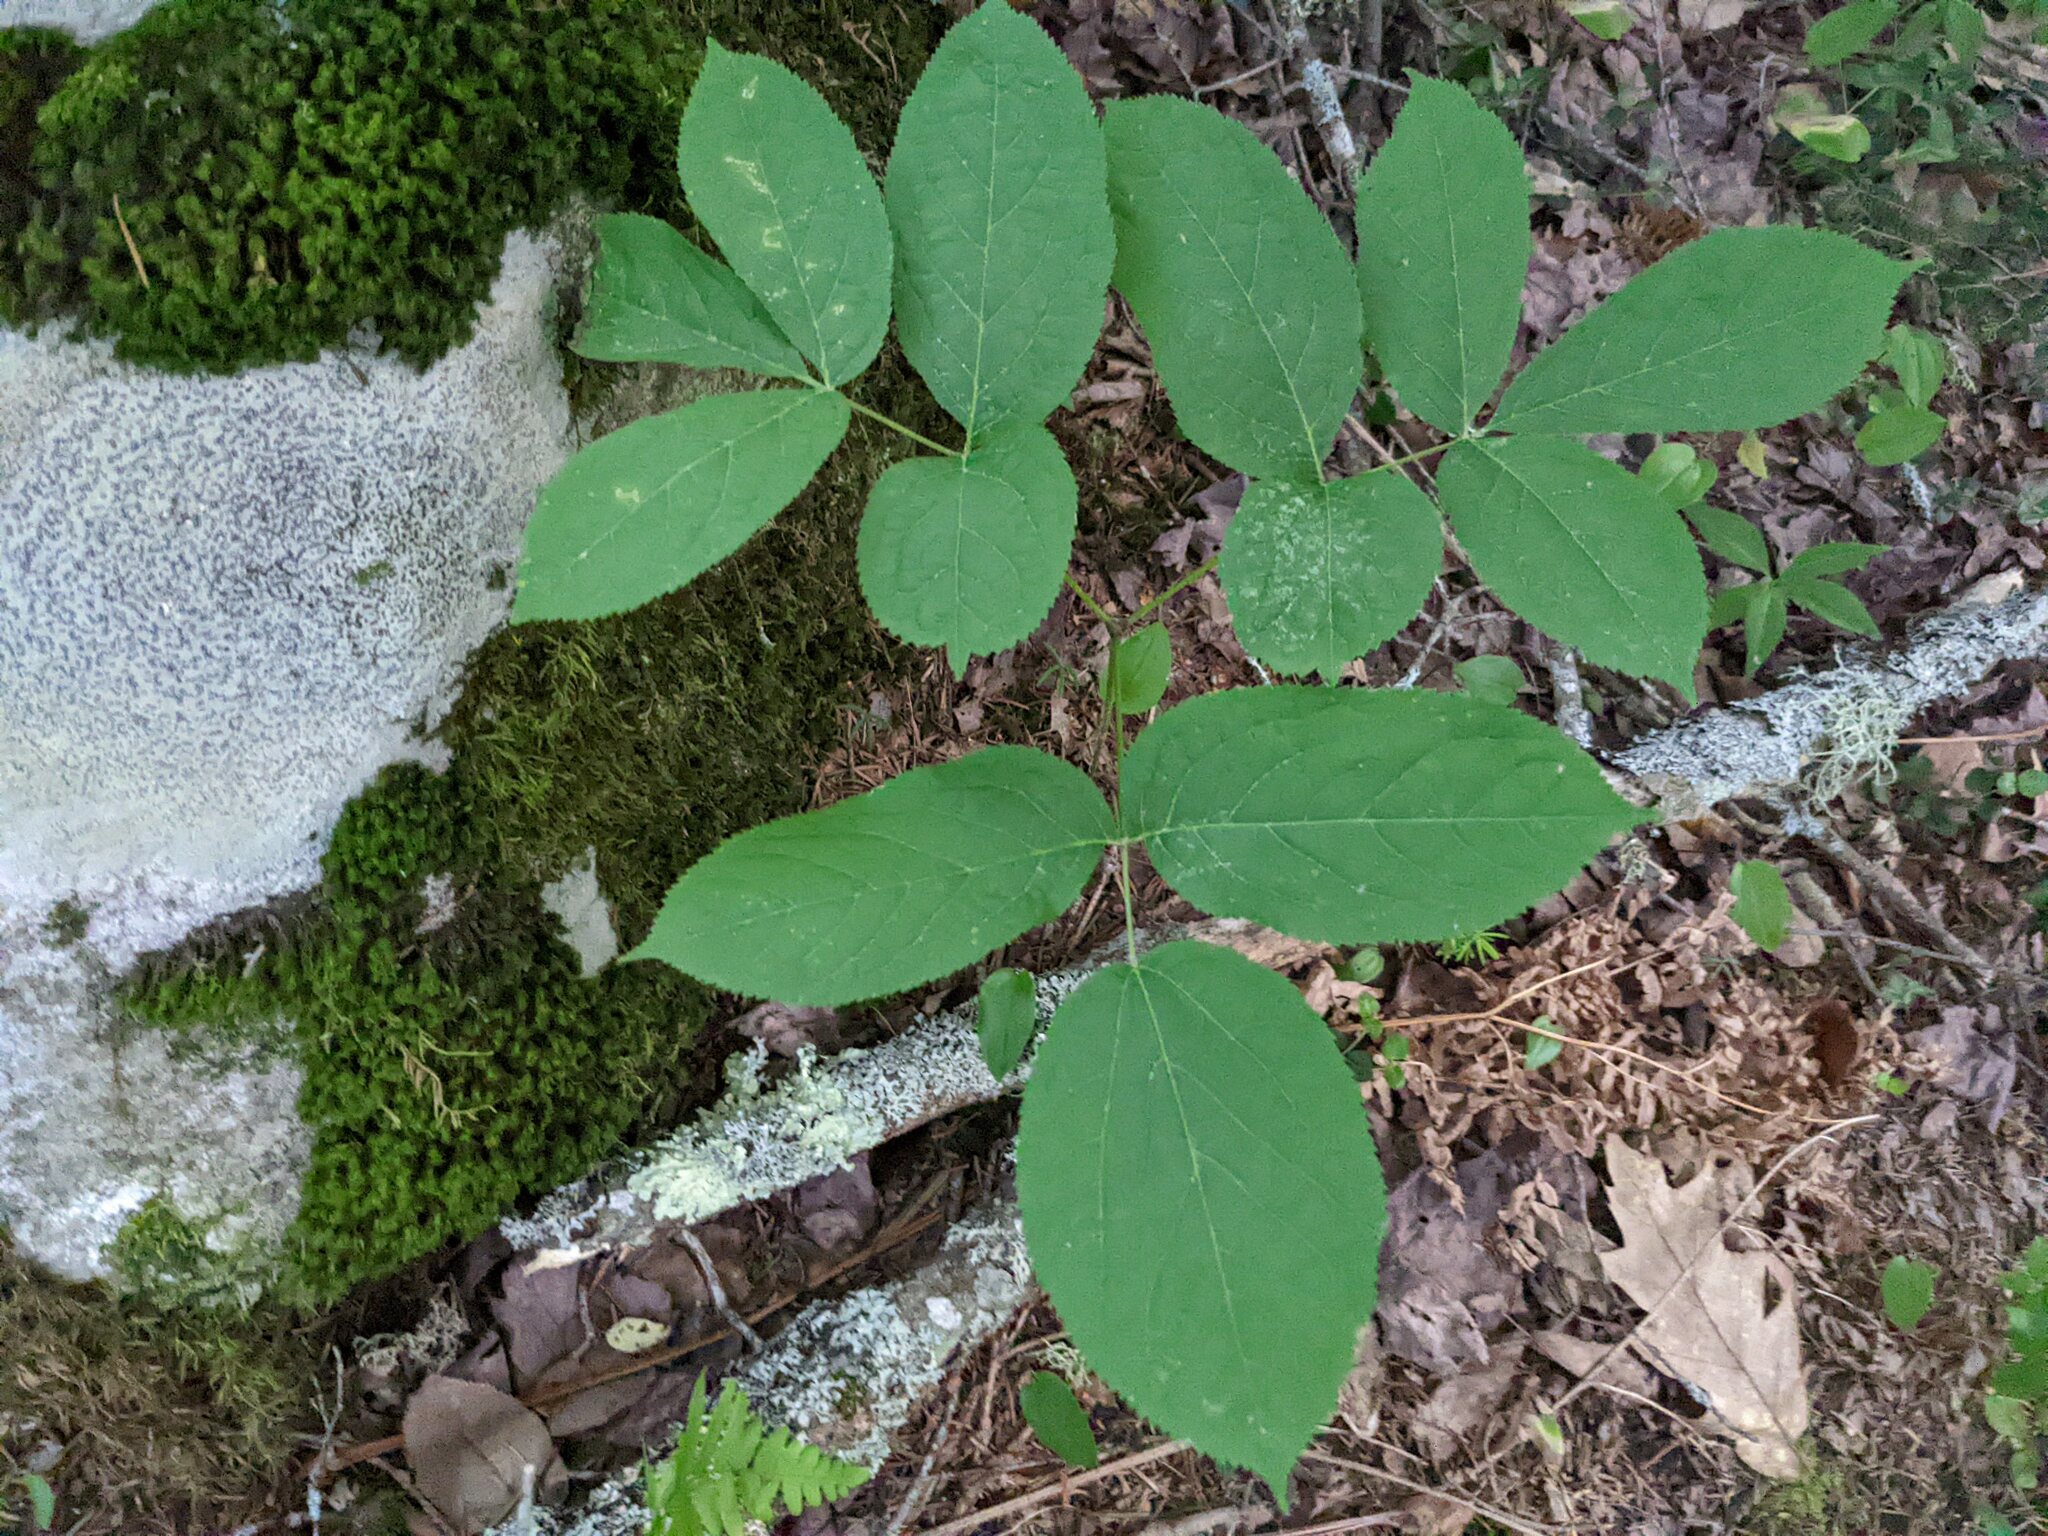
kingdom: Plantae
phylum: Tracheophyta
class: Magnoliopsida
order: Apiales
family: Araliaceae
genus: Aralia
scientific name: Aralia nudicaulis
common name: Wild sarsaparilla
